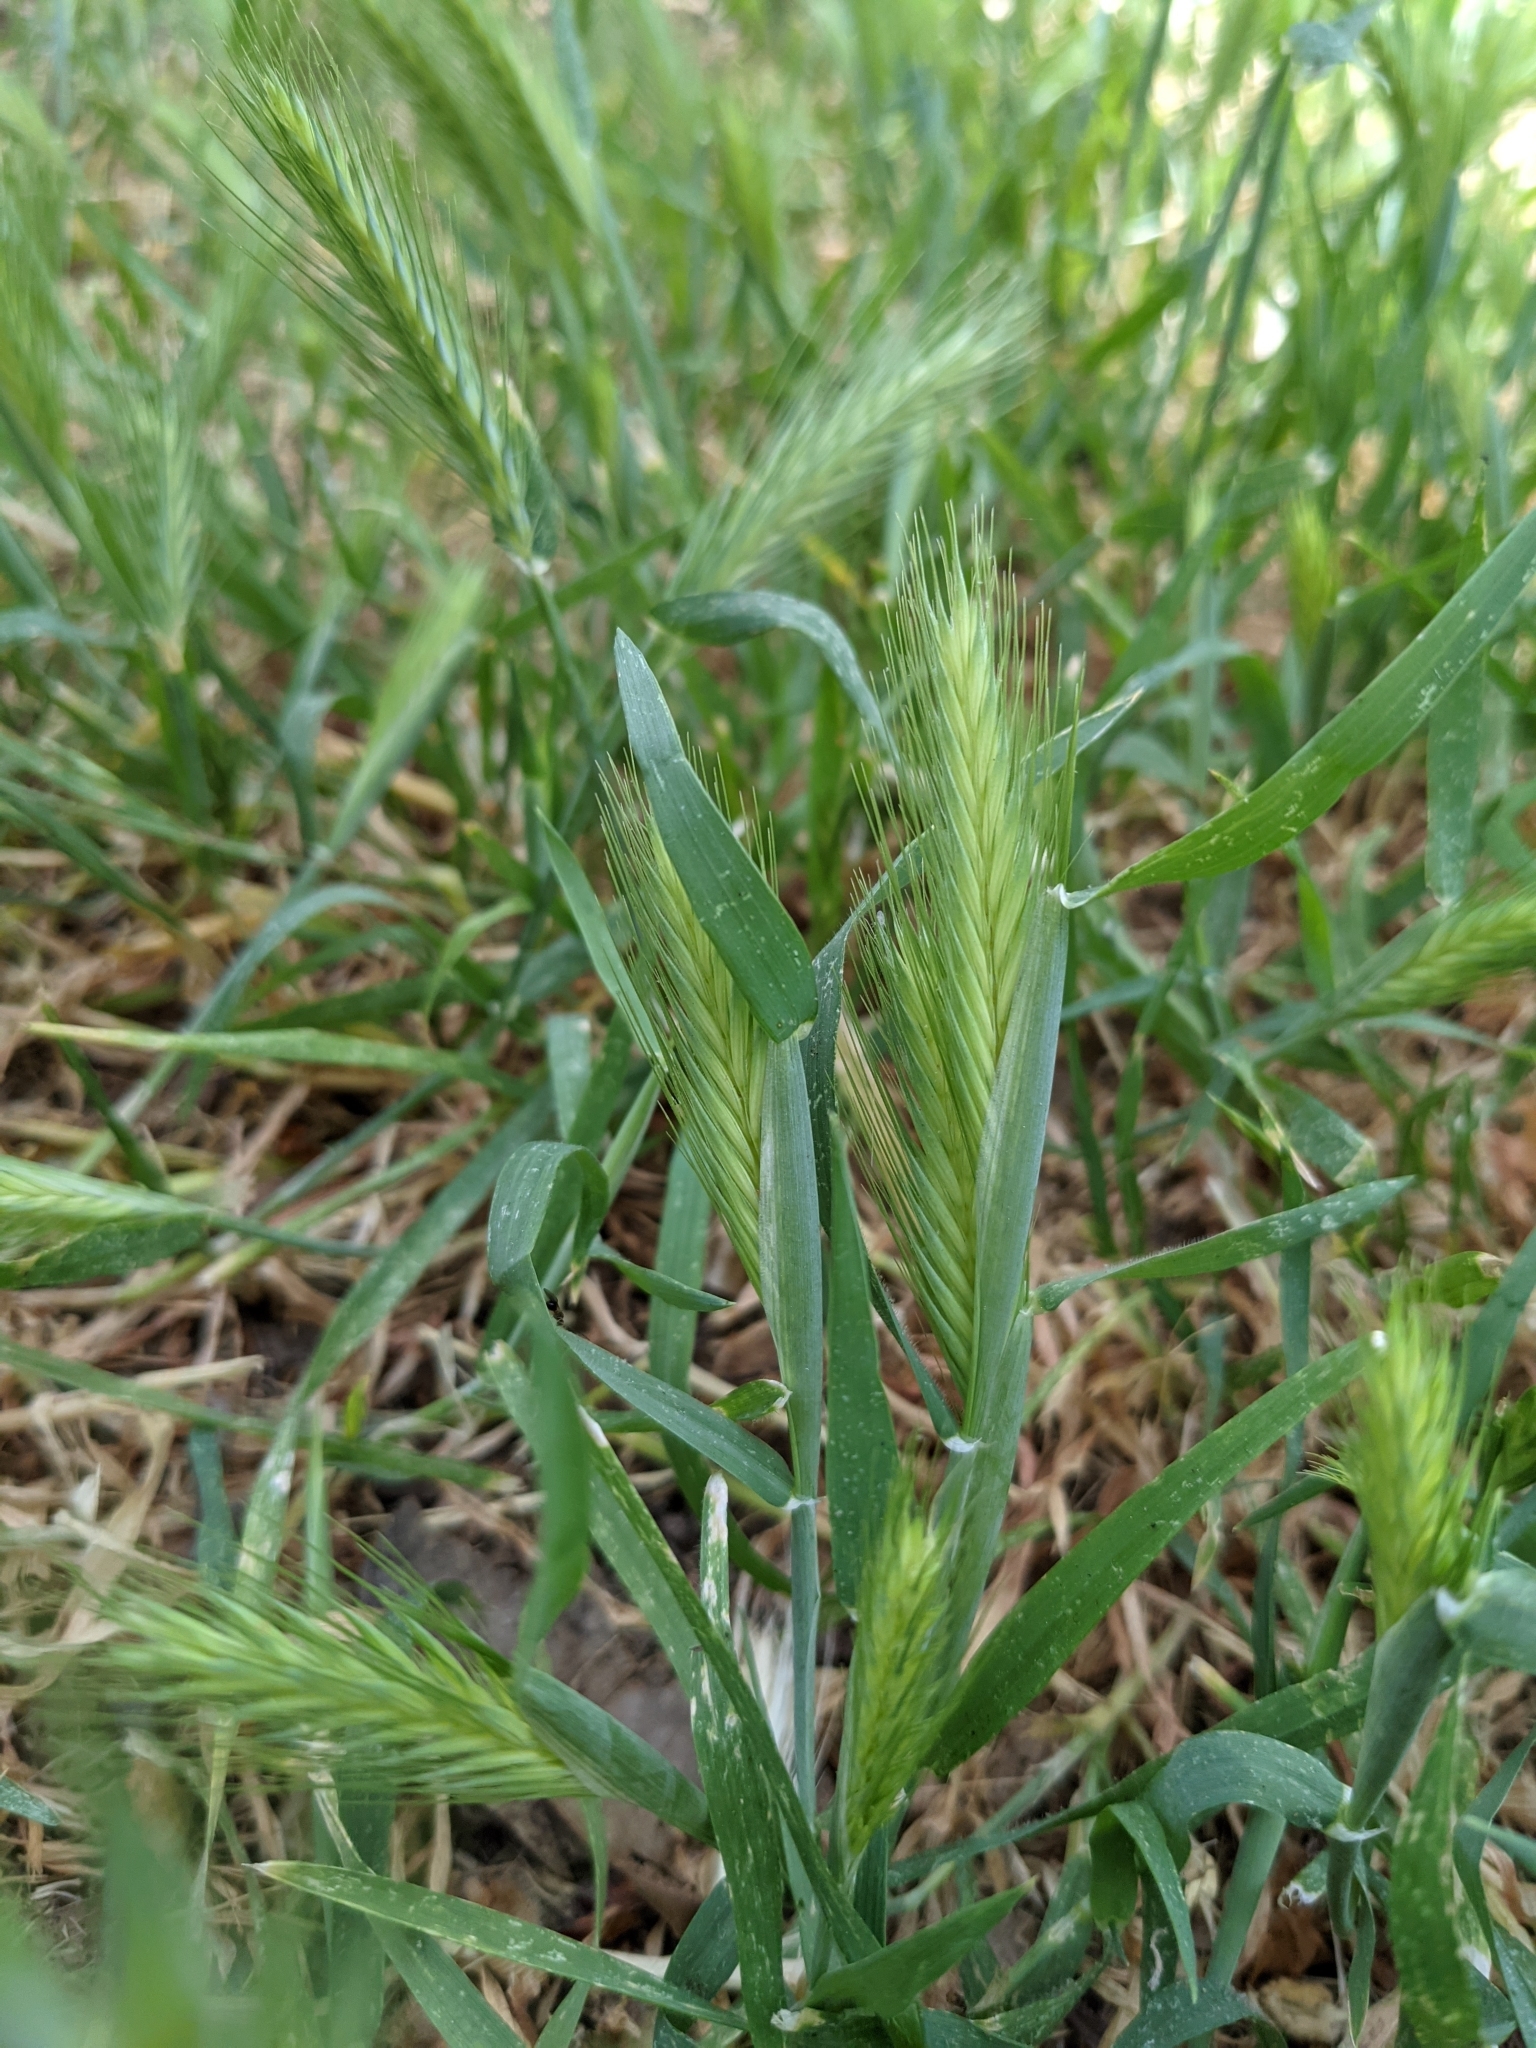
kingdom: Plantae
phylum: Tracheophyta
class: Liliopsida
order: Poales
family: Poaceae
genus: Hordeum
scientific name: Hordeum murinum
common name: Wall barley
